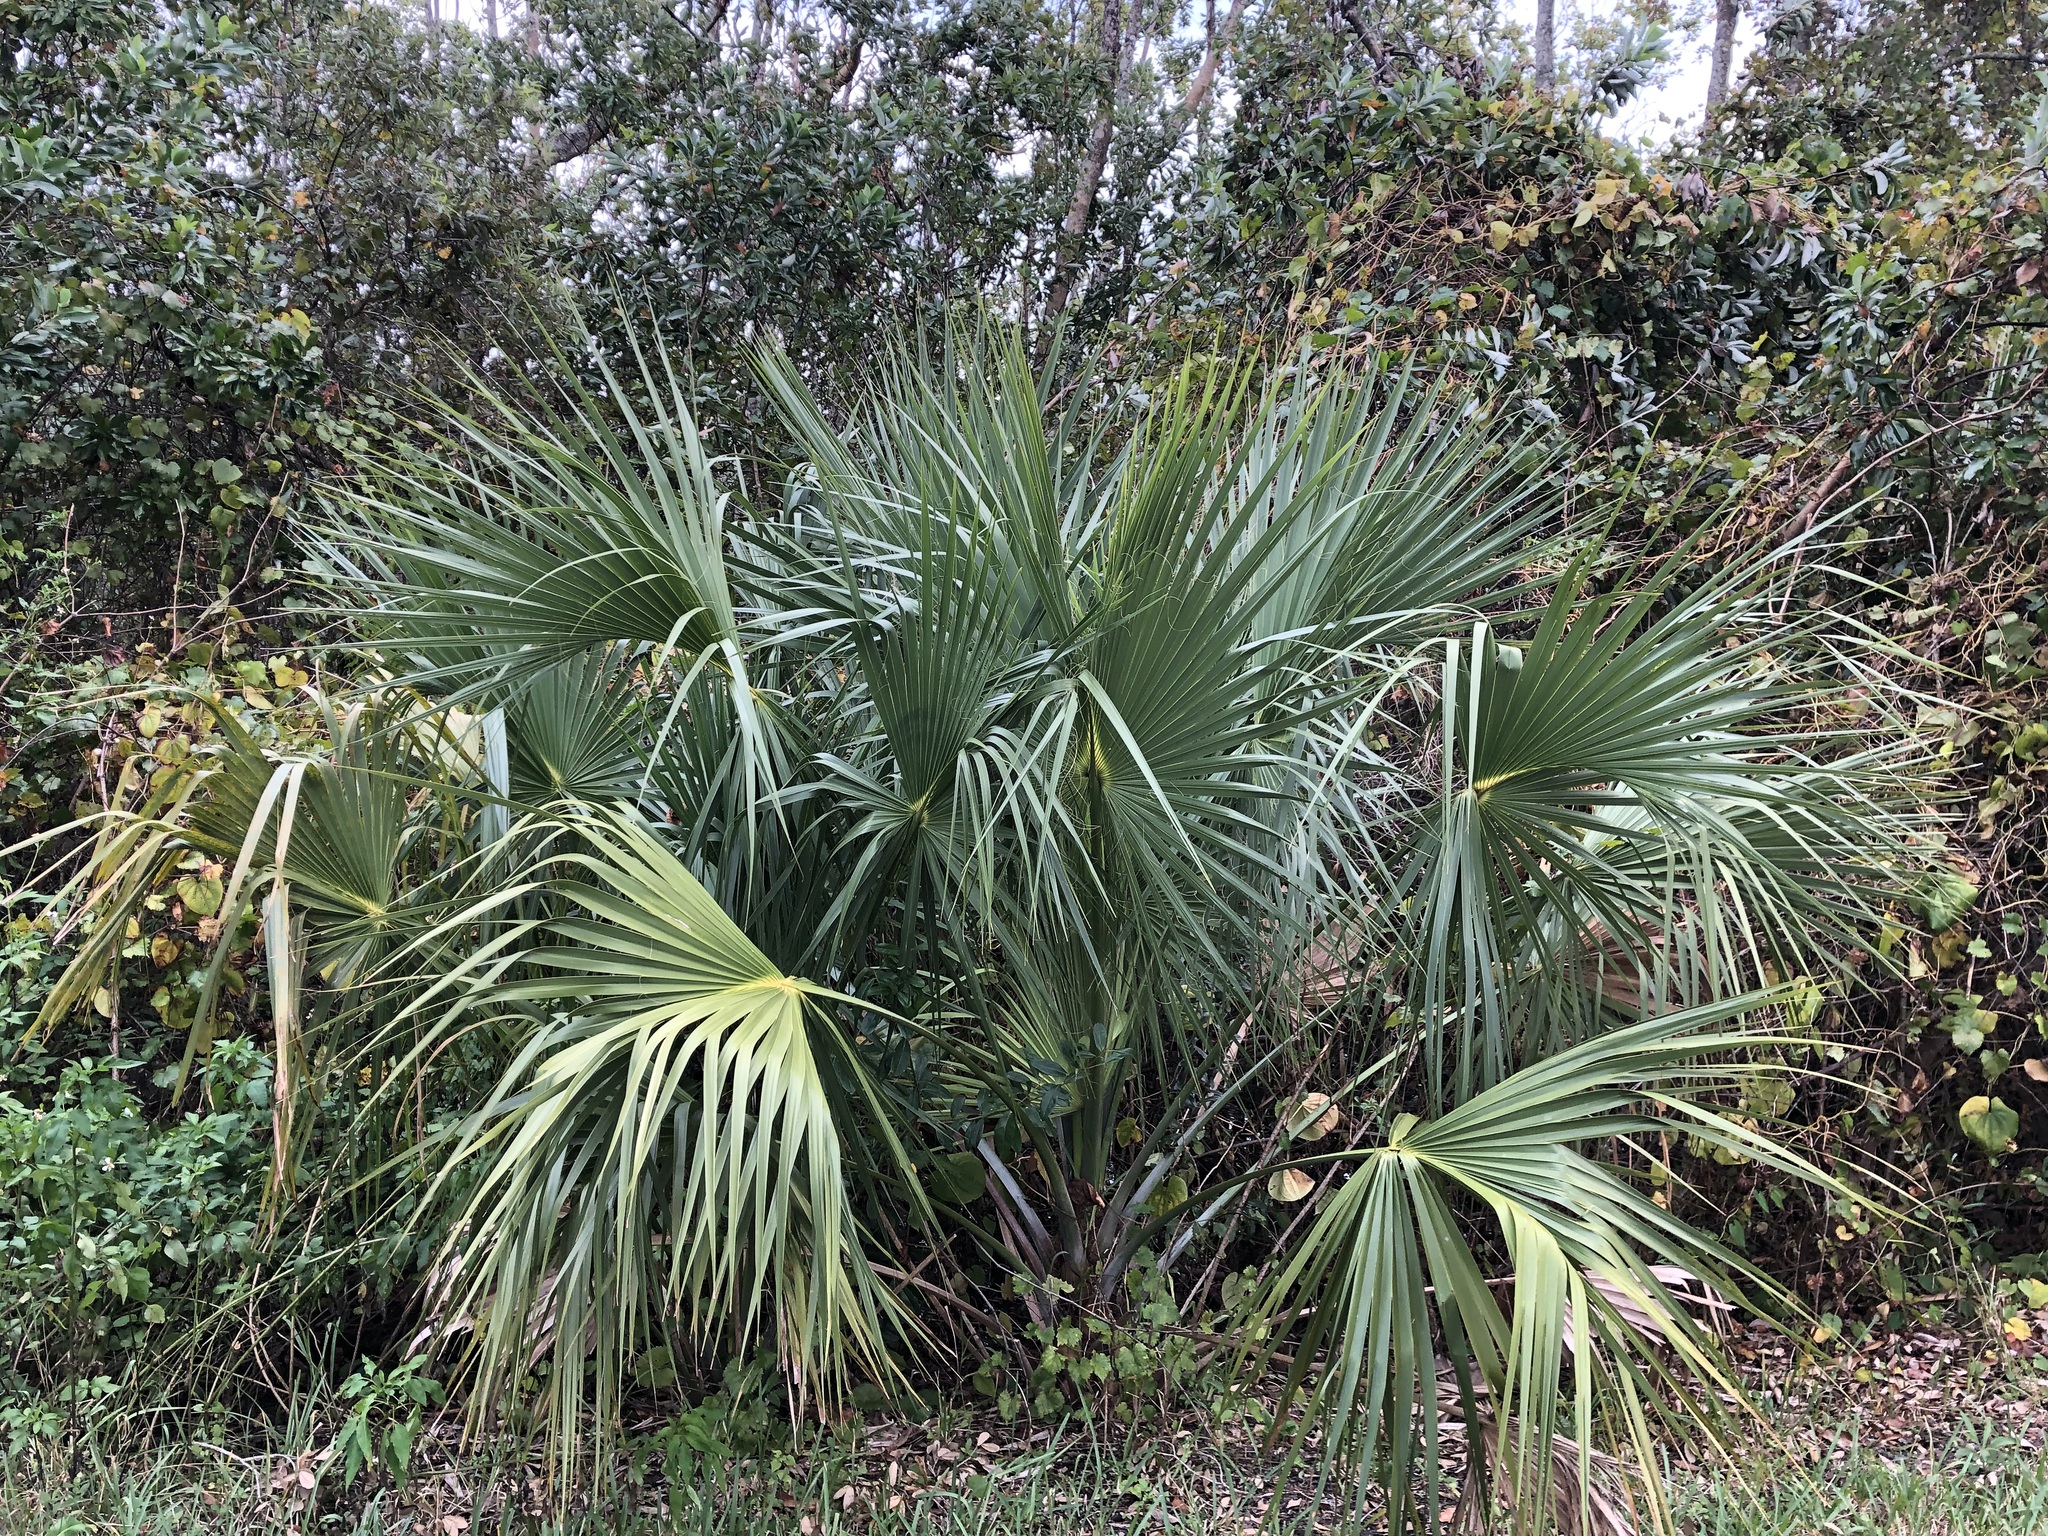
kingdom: Plantae
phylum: Tracheophyta
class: Liliopsida
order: Arecales
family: Arecaceae
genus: Sabal
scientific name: Sabal palmetto
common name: Blue palmetto
